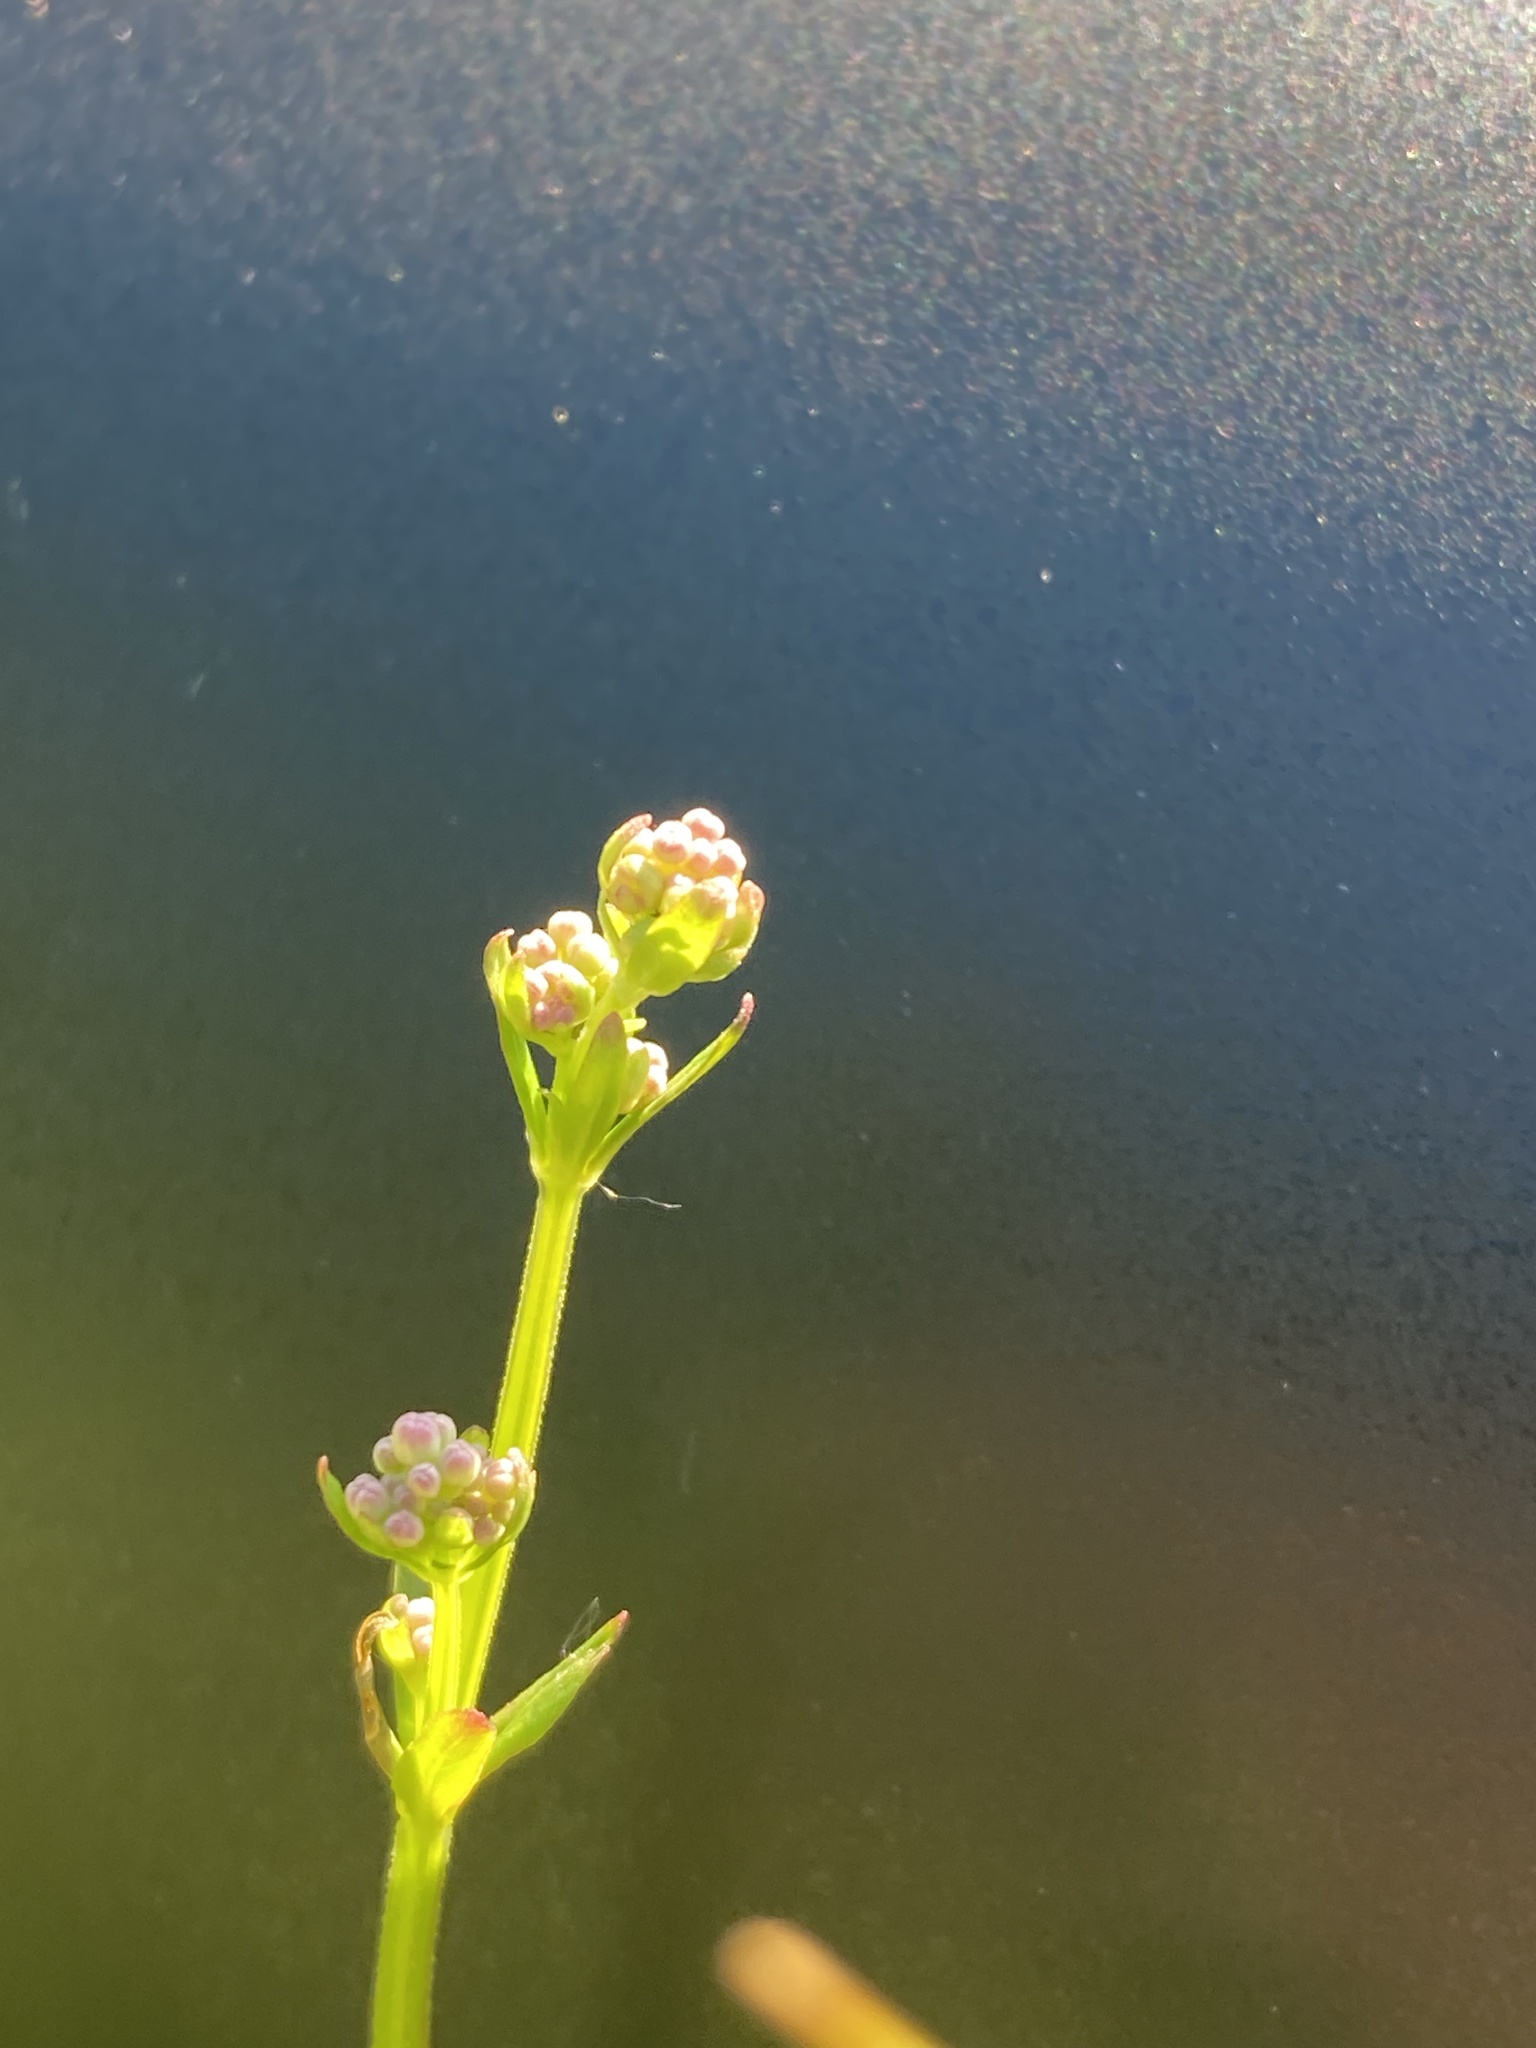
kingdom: Plantae
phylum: Tracheophyta
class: Magnoliopsida
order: Gentianales
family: Rubiaceae
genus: Galium
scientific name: Galium palustre
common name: Common marsh-bedstraw
